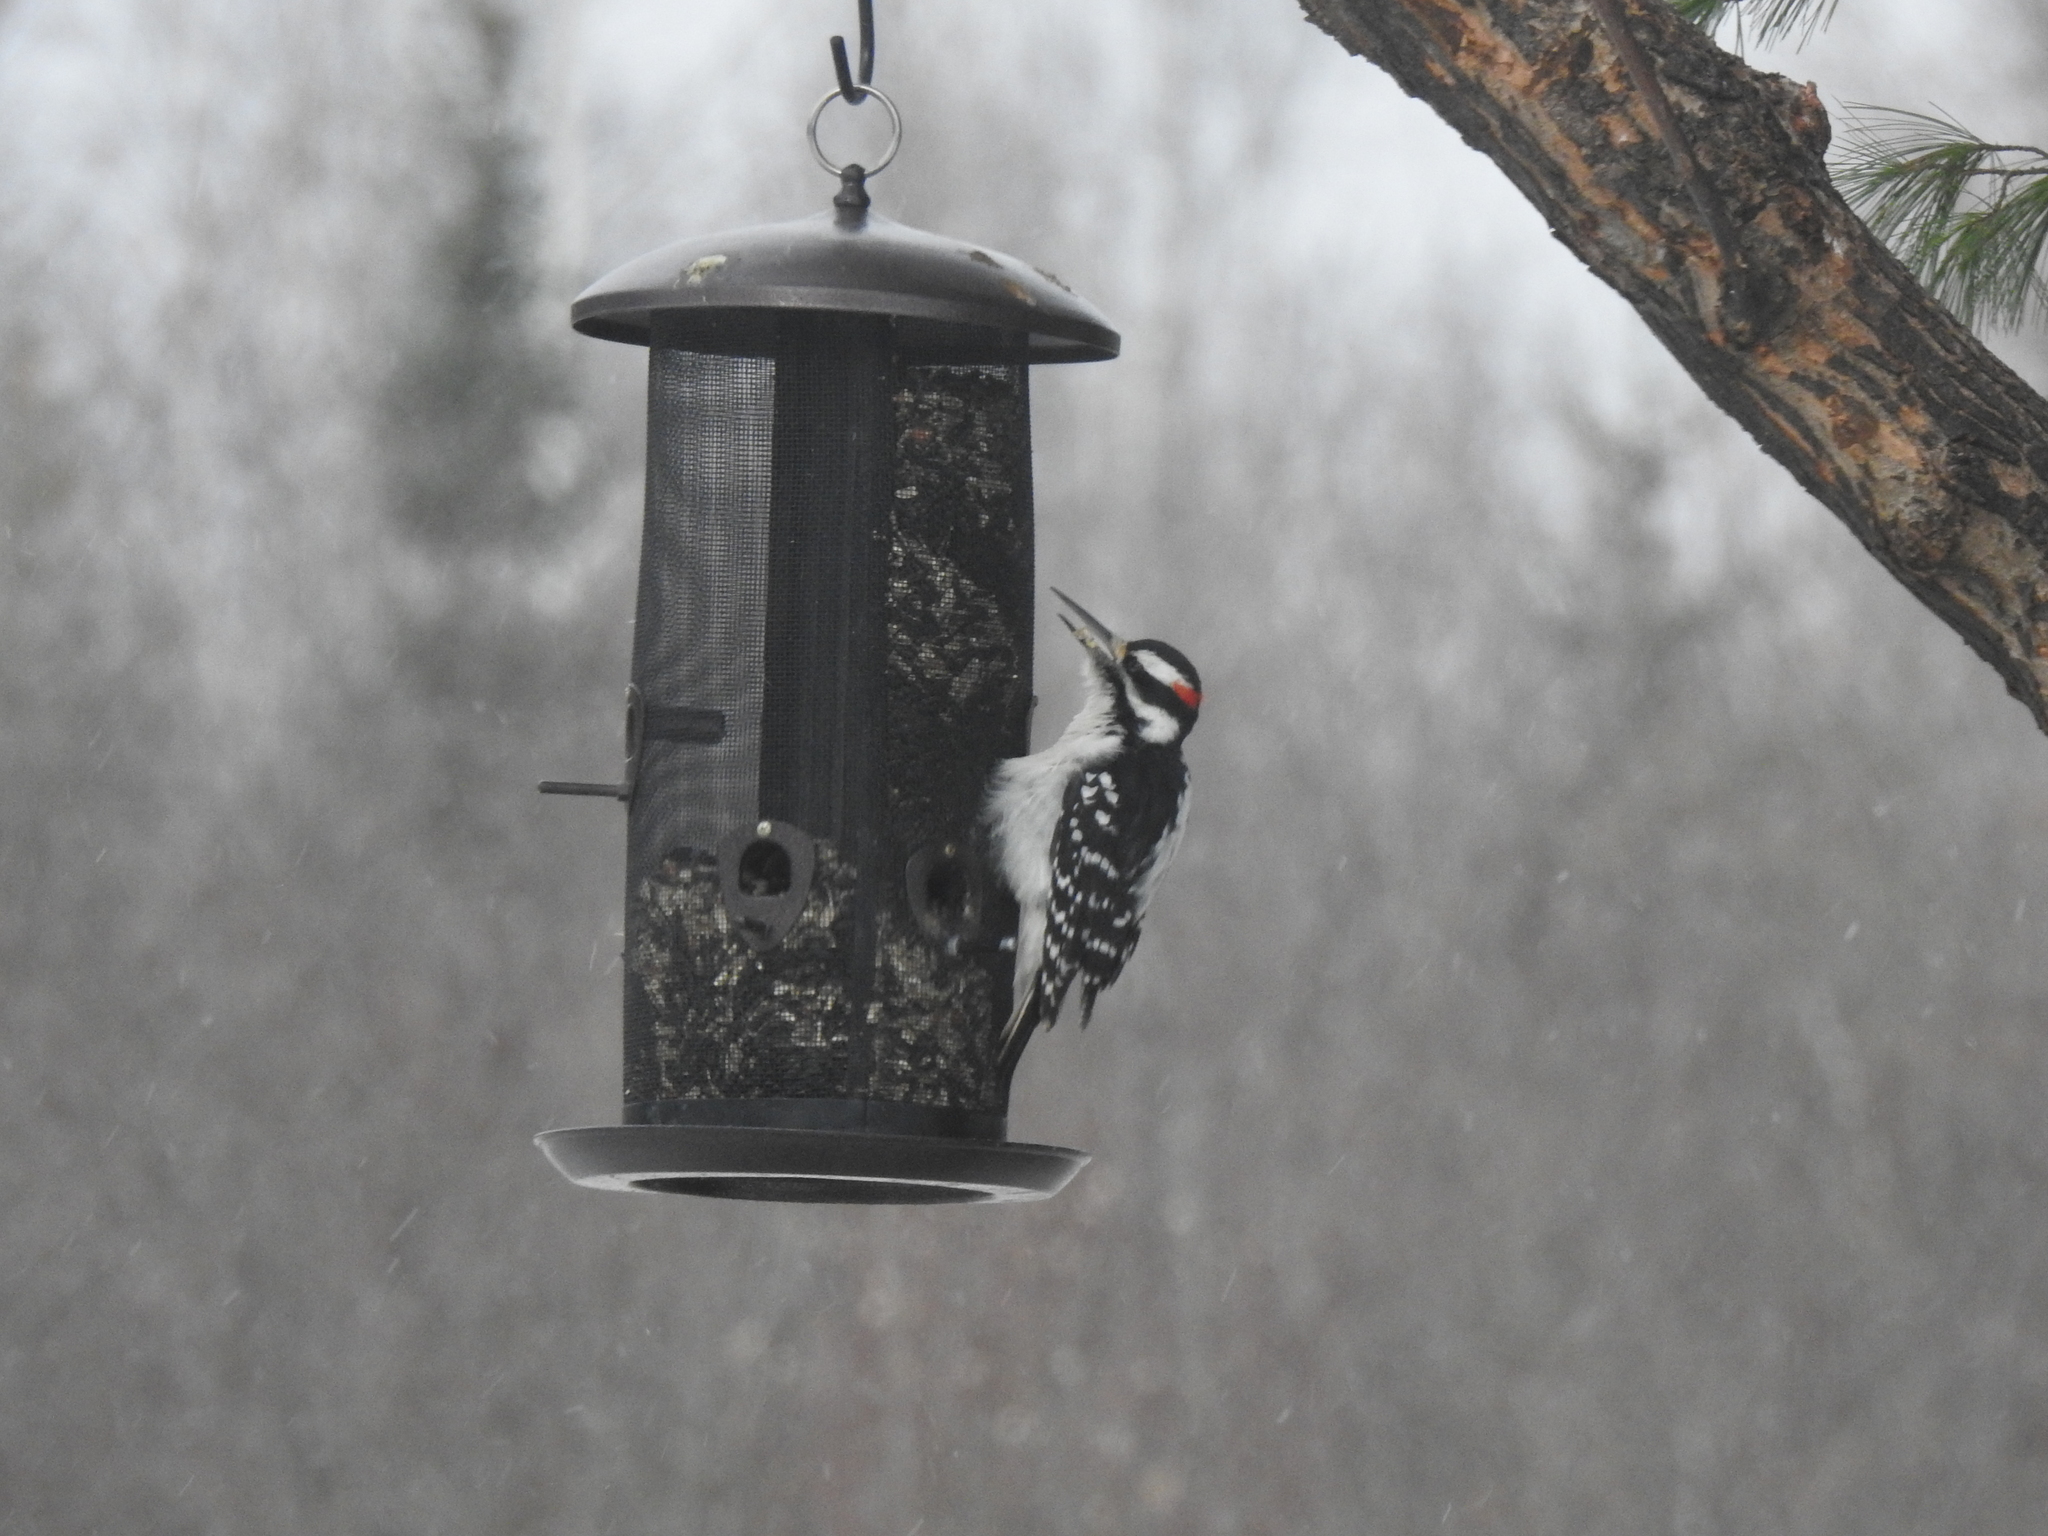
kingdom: Animalia
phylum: Chordata
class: Aves
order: Piciformes
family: Picidae
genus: Leuconotopicus
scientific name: Leuconotopicus villosus
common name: Hairy woodpecker
